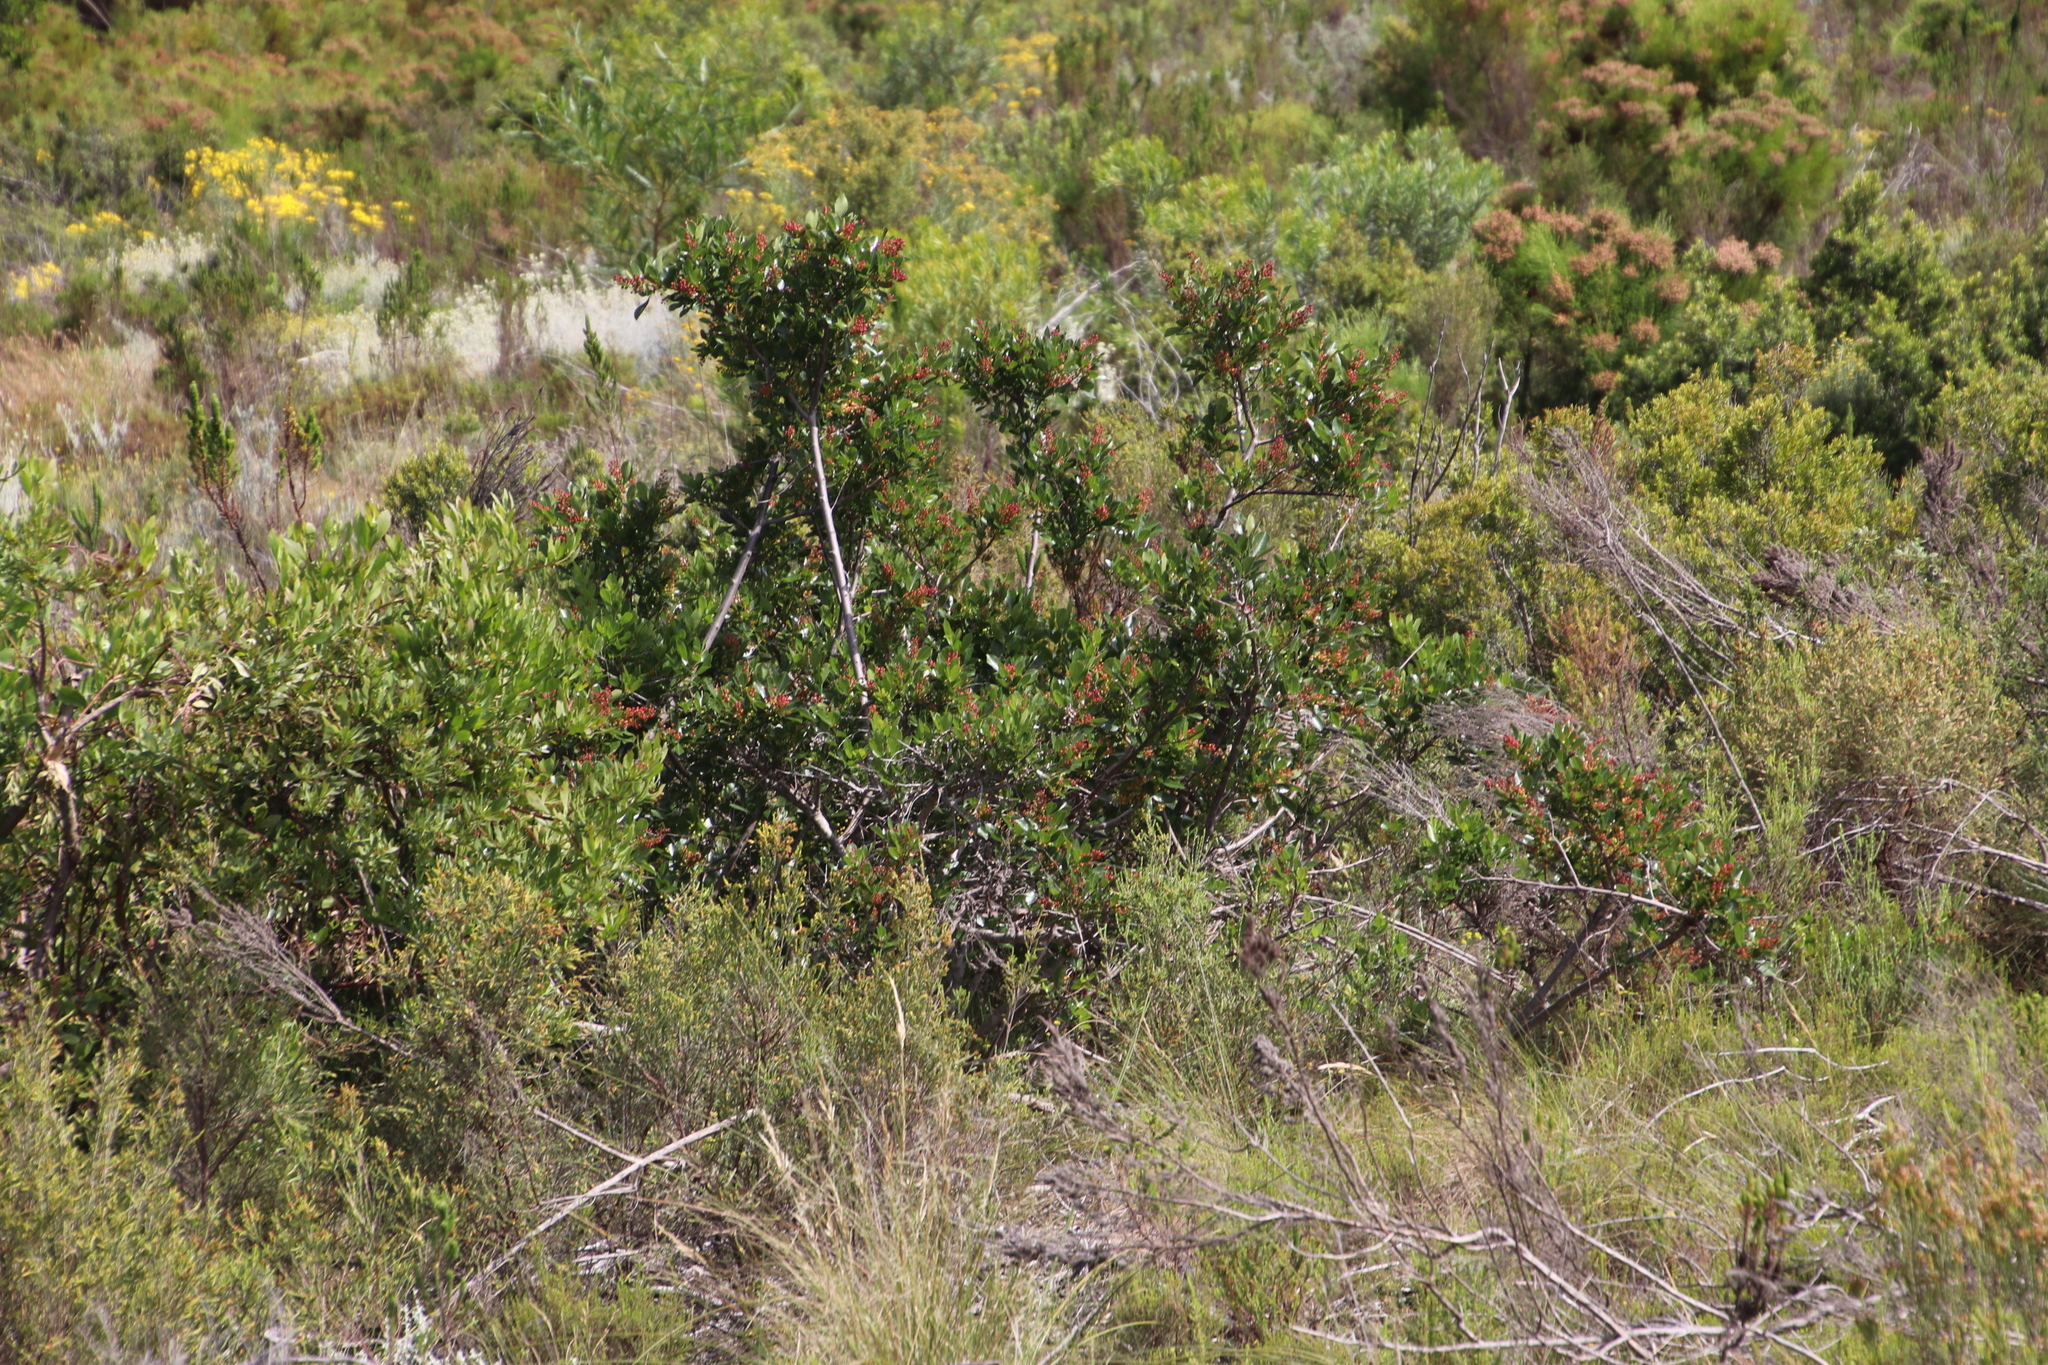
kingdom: Plantae
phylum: Tracheophyta
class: Magnoliopsida
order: Sapindales
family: Anacardiaceae
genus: Searsia
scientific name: Searsia laevigata
